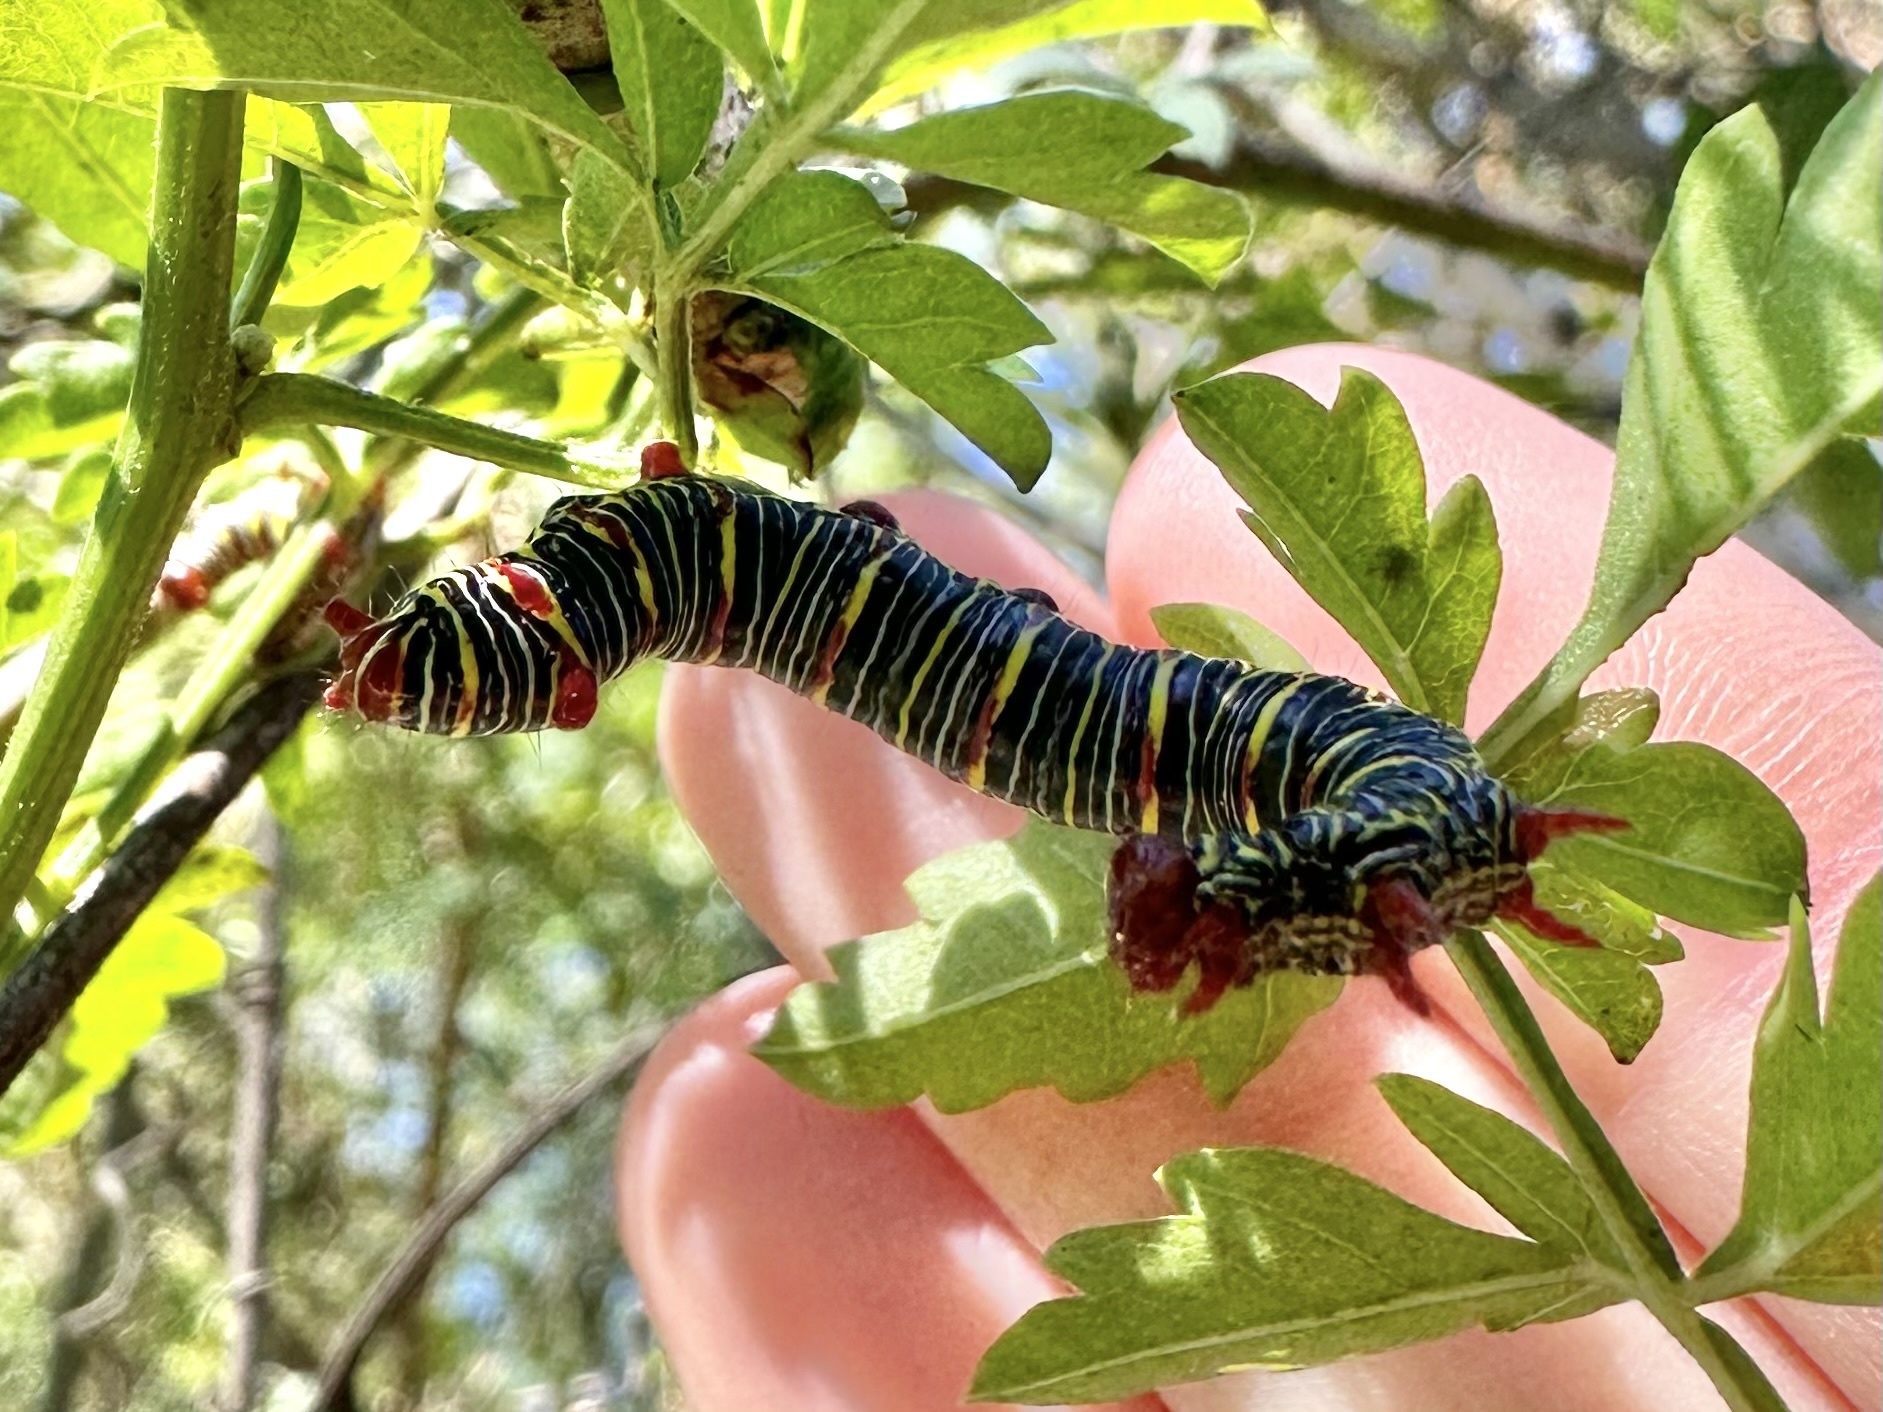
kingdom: Animalia
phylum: Arthropoda
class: Insecta
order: Lepidoptera
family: Notodontidae
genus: Didugua
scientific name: Didugua argentilinea
